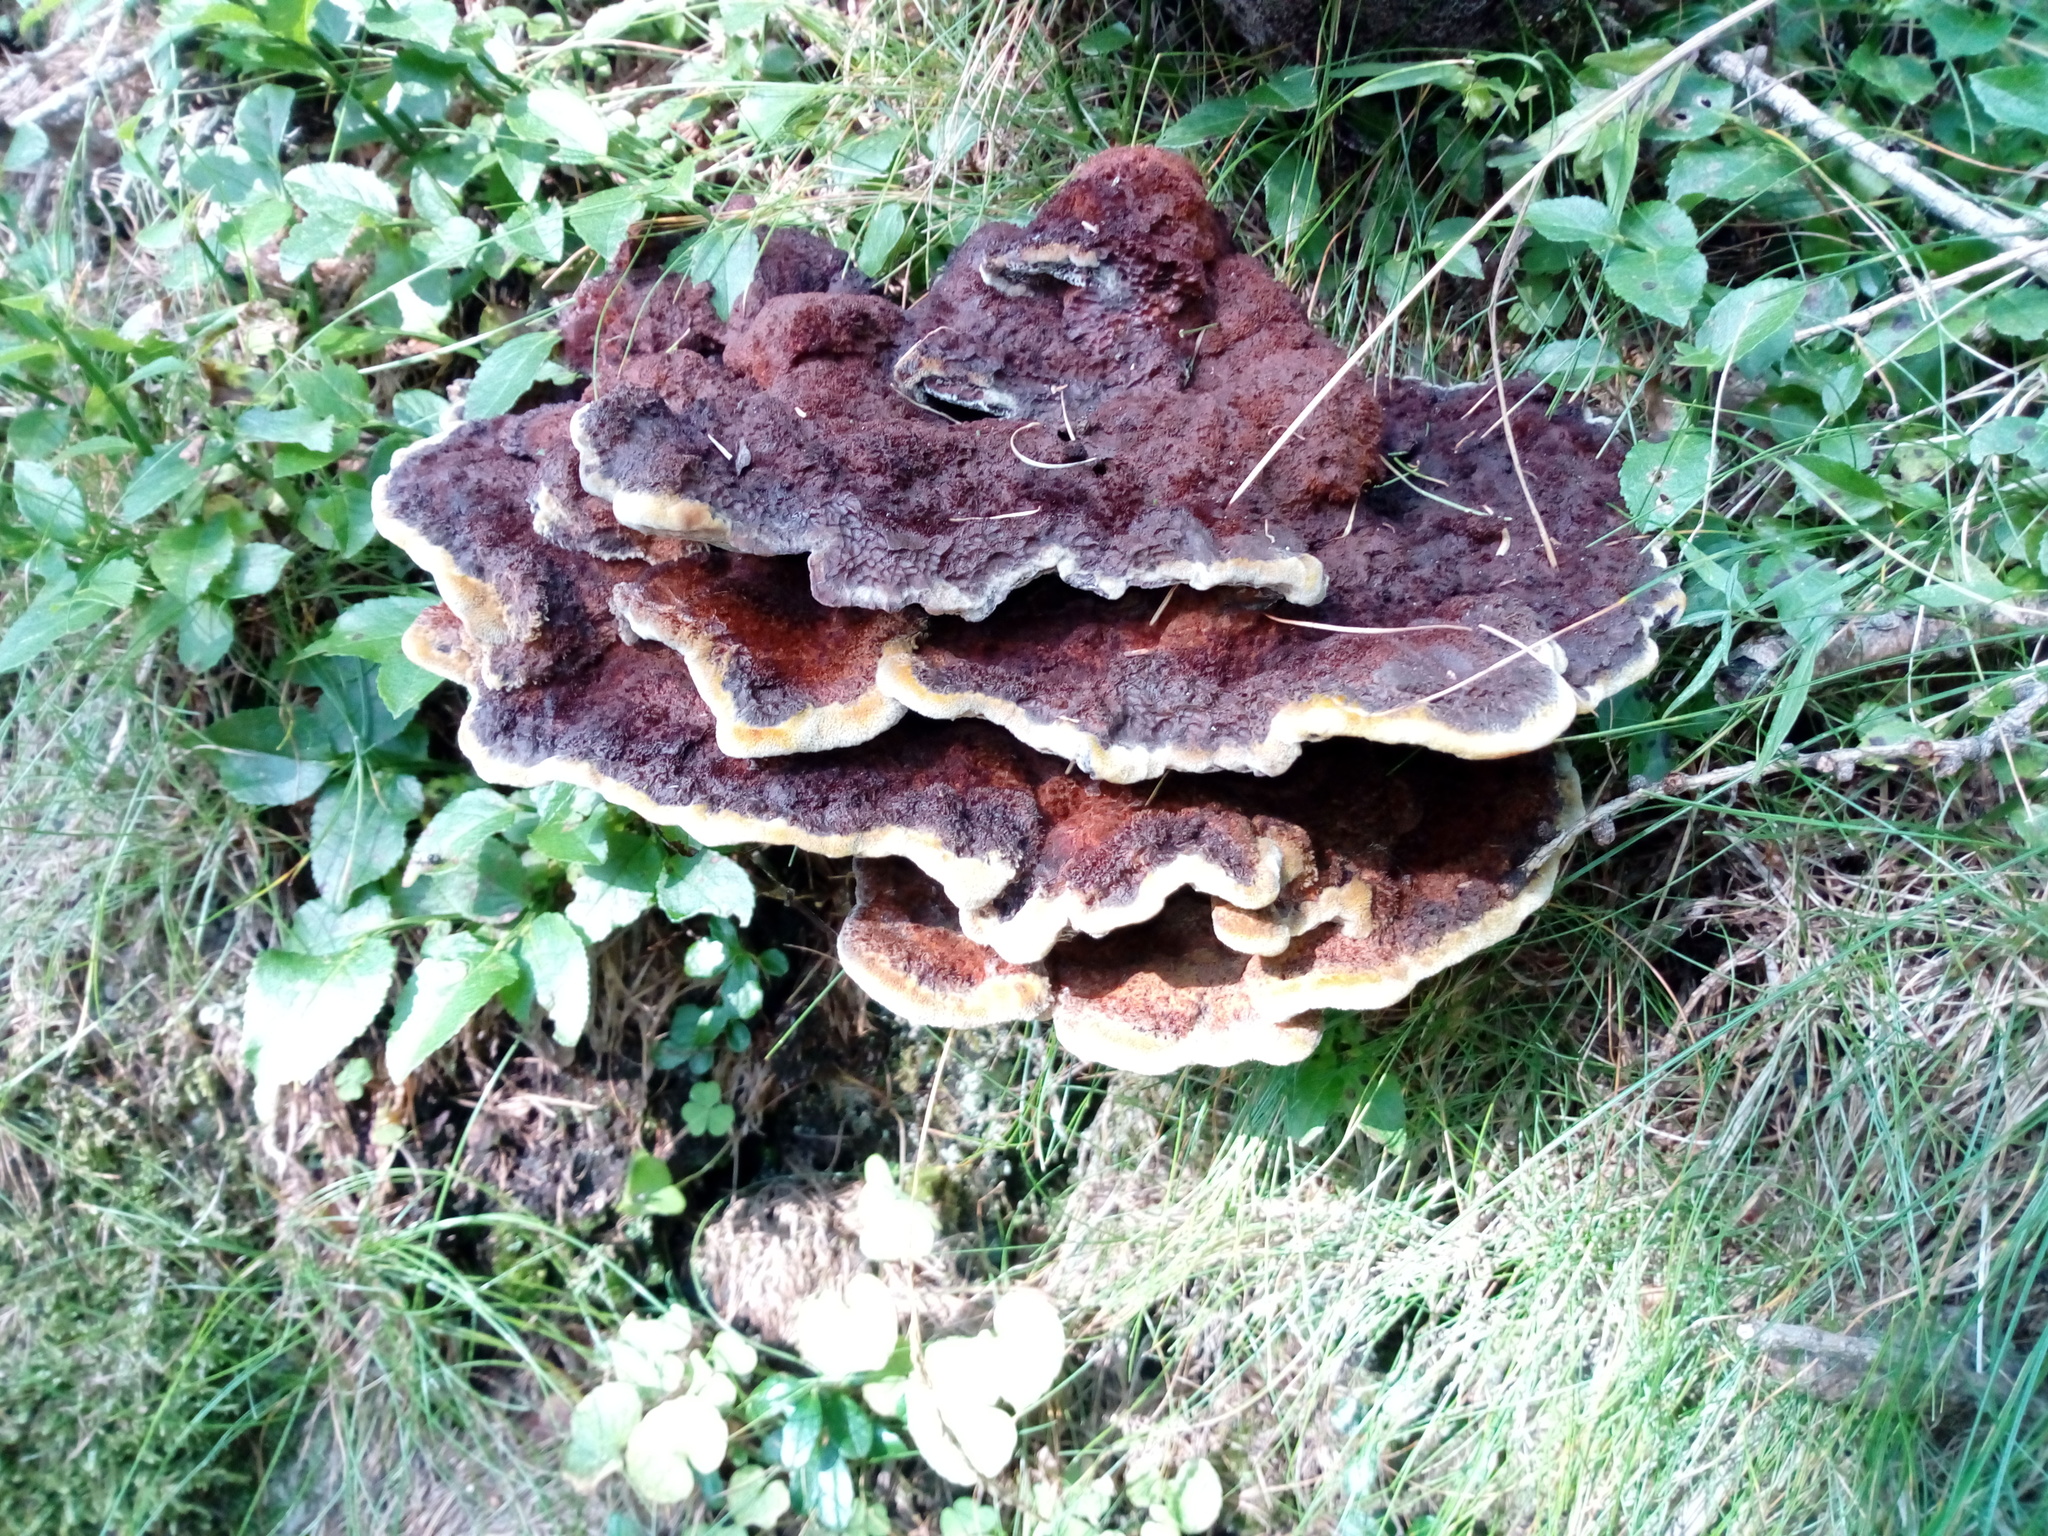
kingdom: Fungi
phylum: Basidiomycota
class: Agaricomycetes
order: Polyporales
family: Laetiporaceae
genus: Phaeolus
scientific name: Phaeolus schweinitzii
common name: Dyer's mazegill
